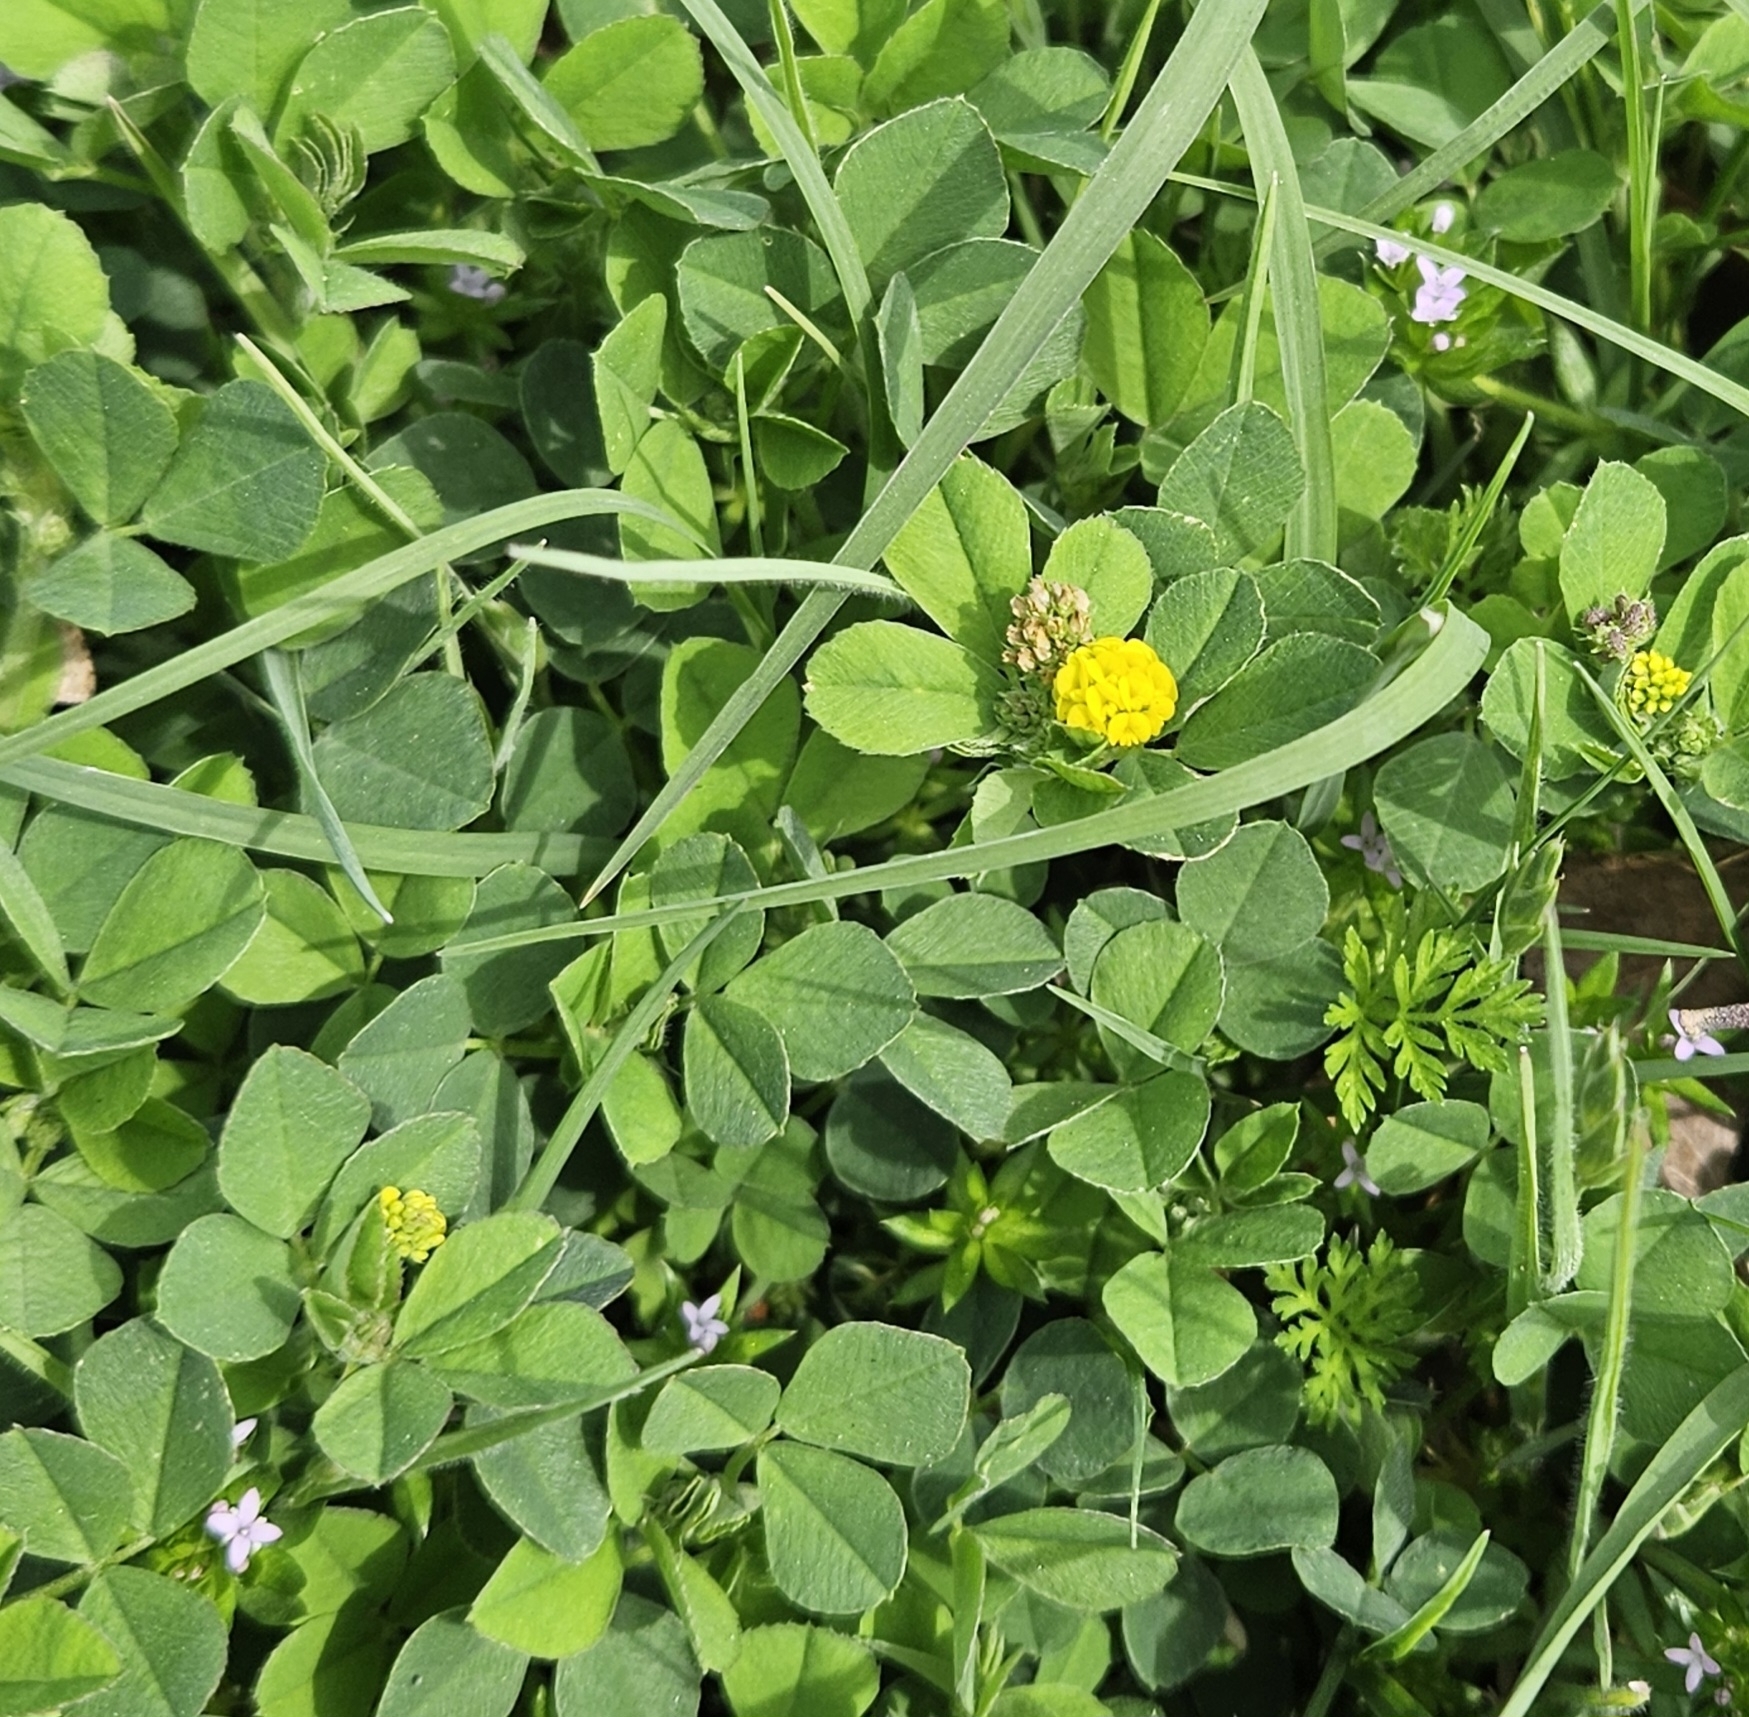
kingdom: Plantae
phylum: Tracheophyta
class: Magnoliopsida
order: Fabales
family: Fabaceae
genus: Medicago
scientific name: Medicago lupulina
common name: Black medick
